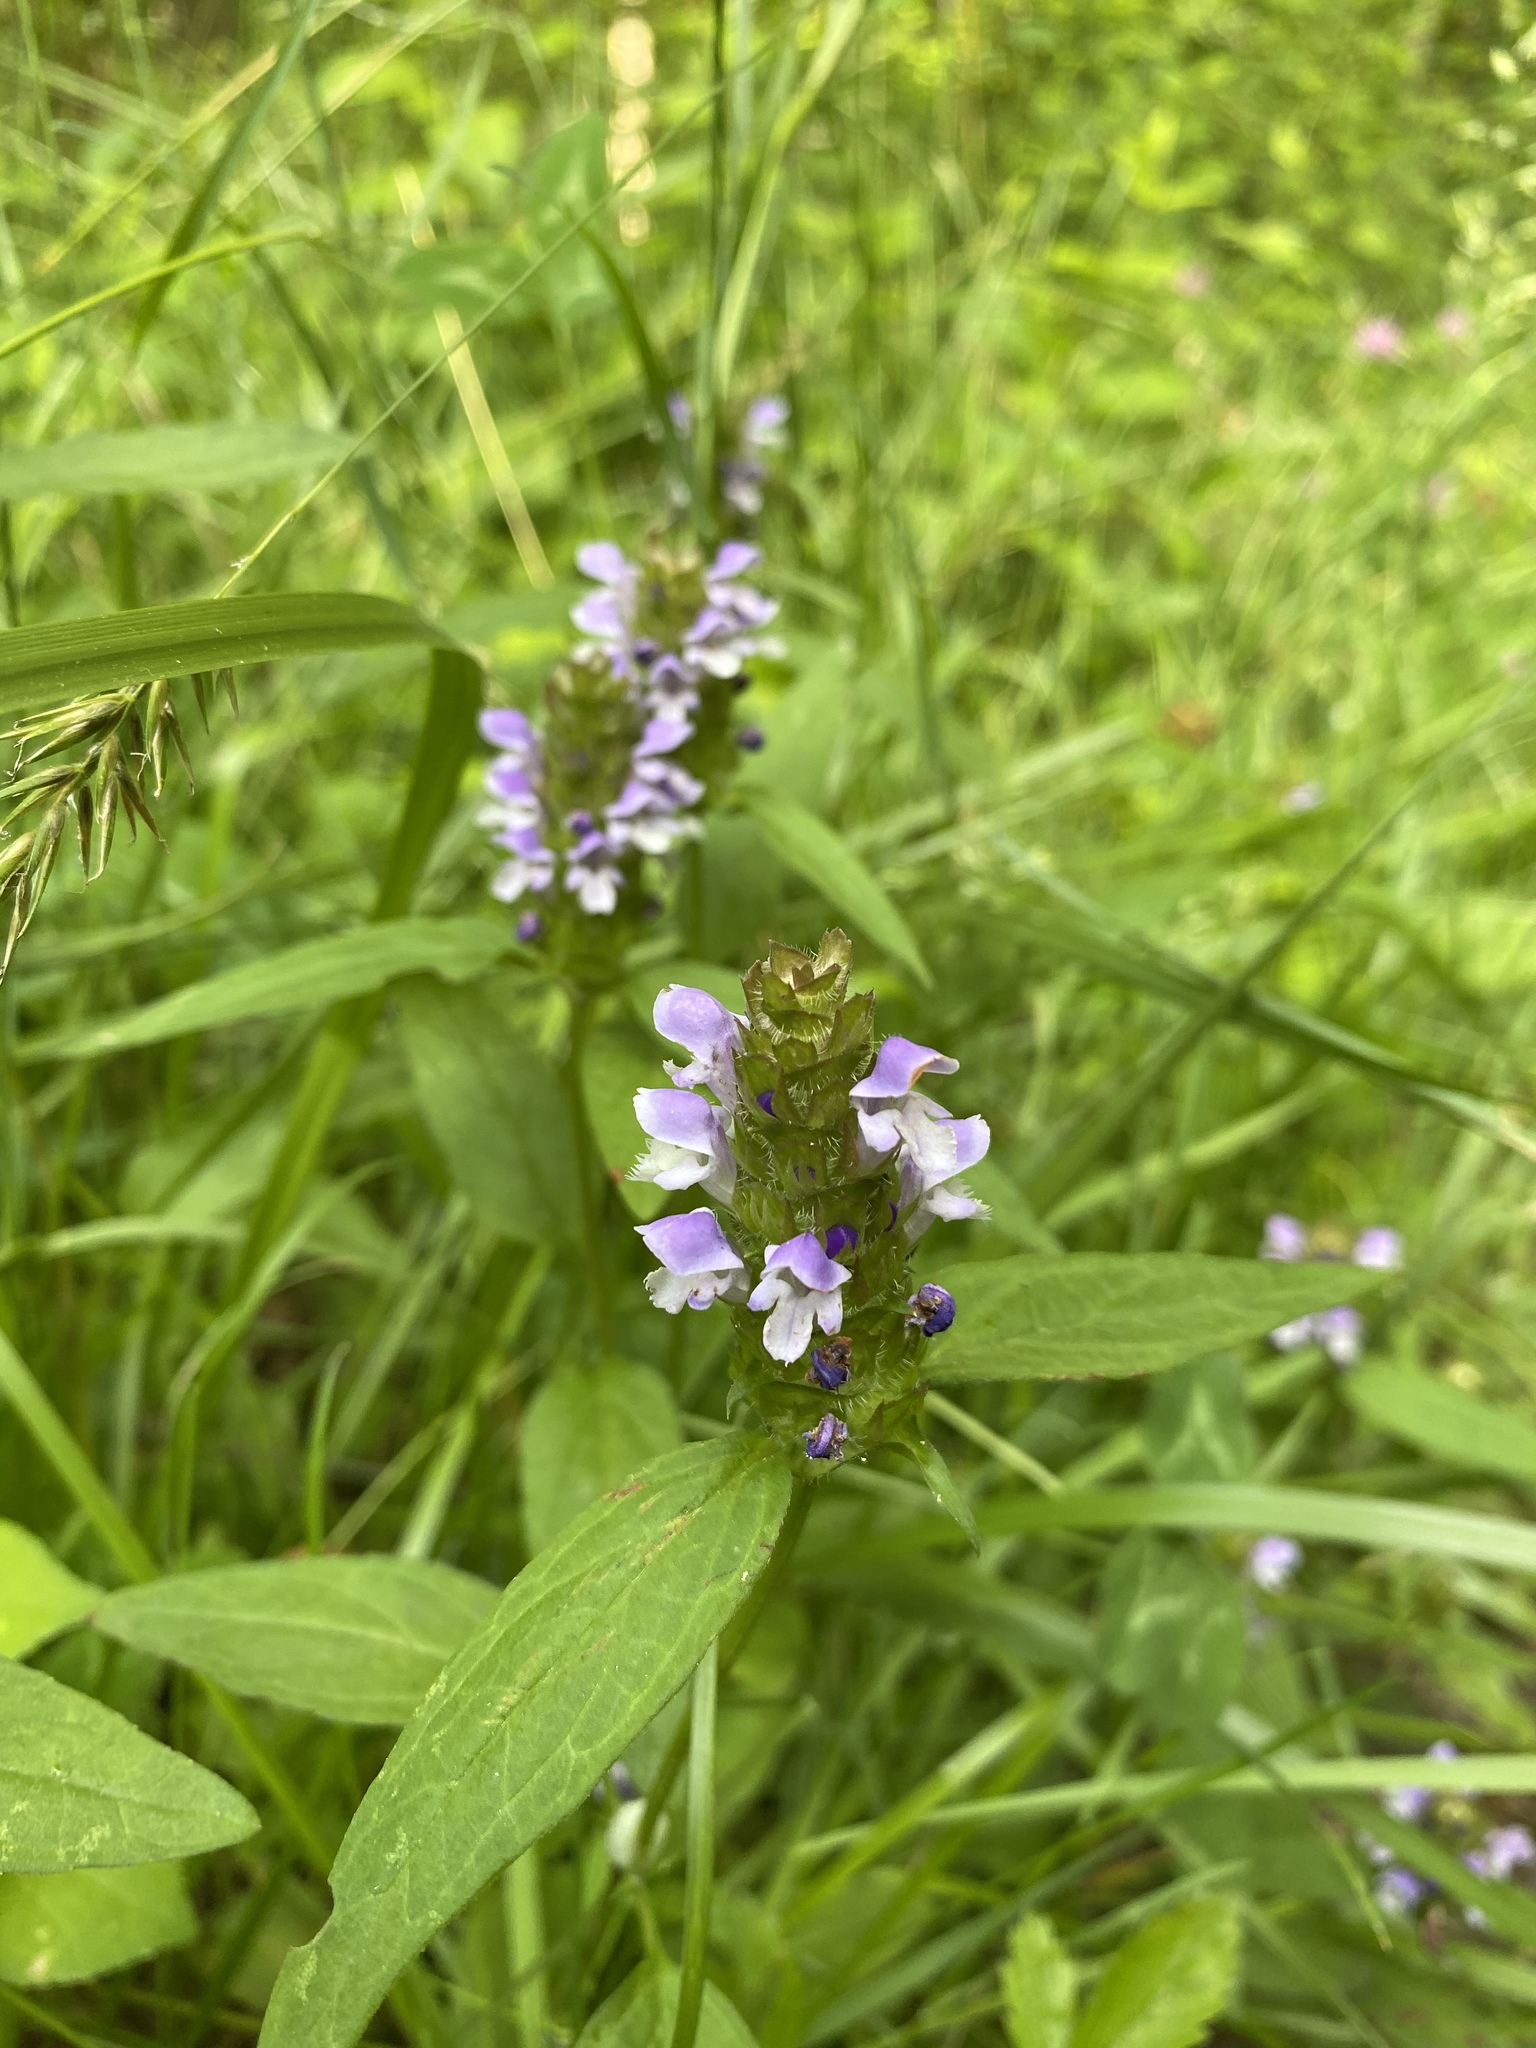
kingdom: Plantae
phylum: Tracheophyta
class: Magnoliopsida
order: Lamiales
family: Lamiaceae
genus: Prunella
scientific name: Prunella vulgaris
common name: Heal-all
